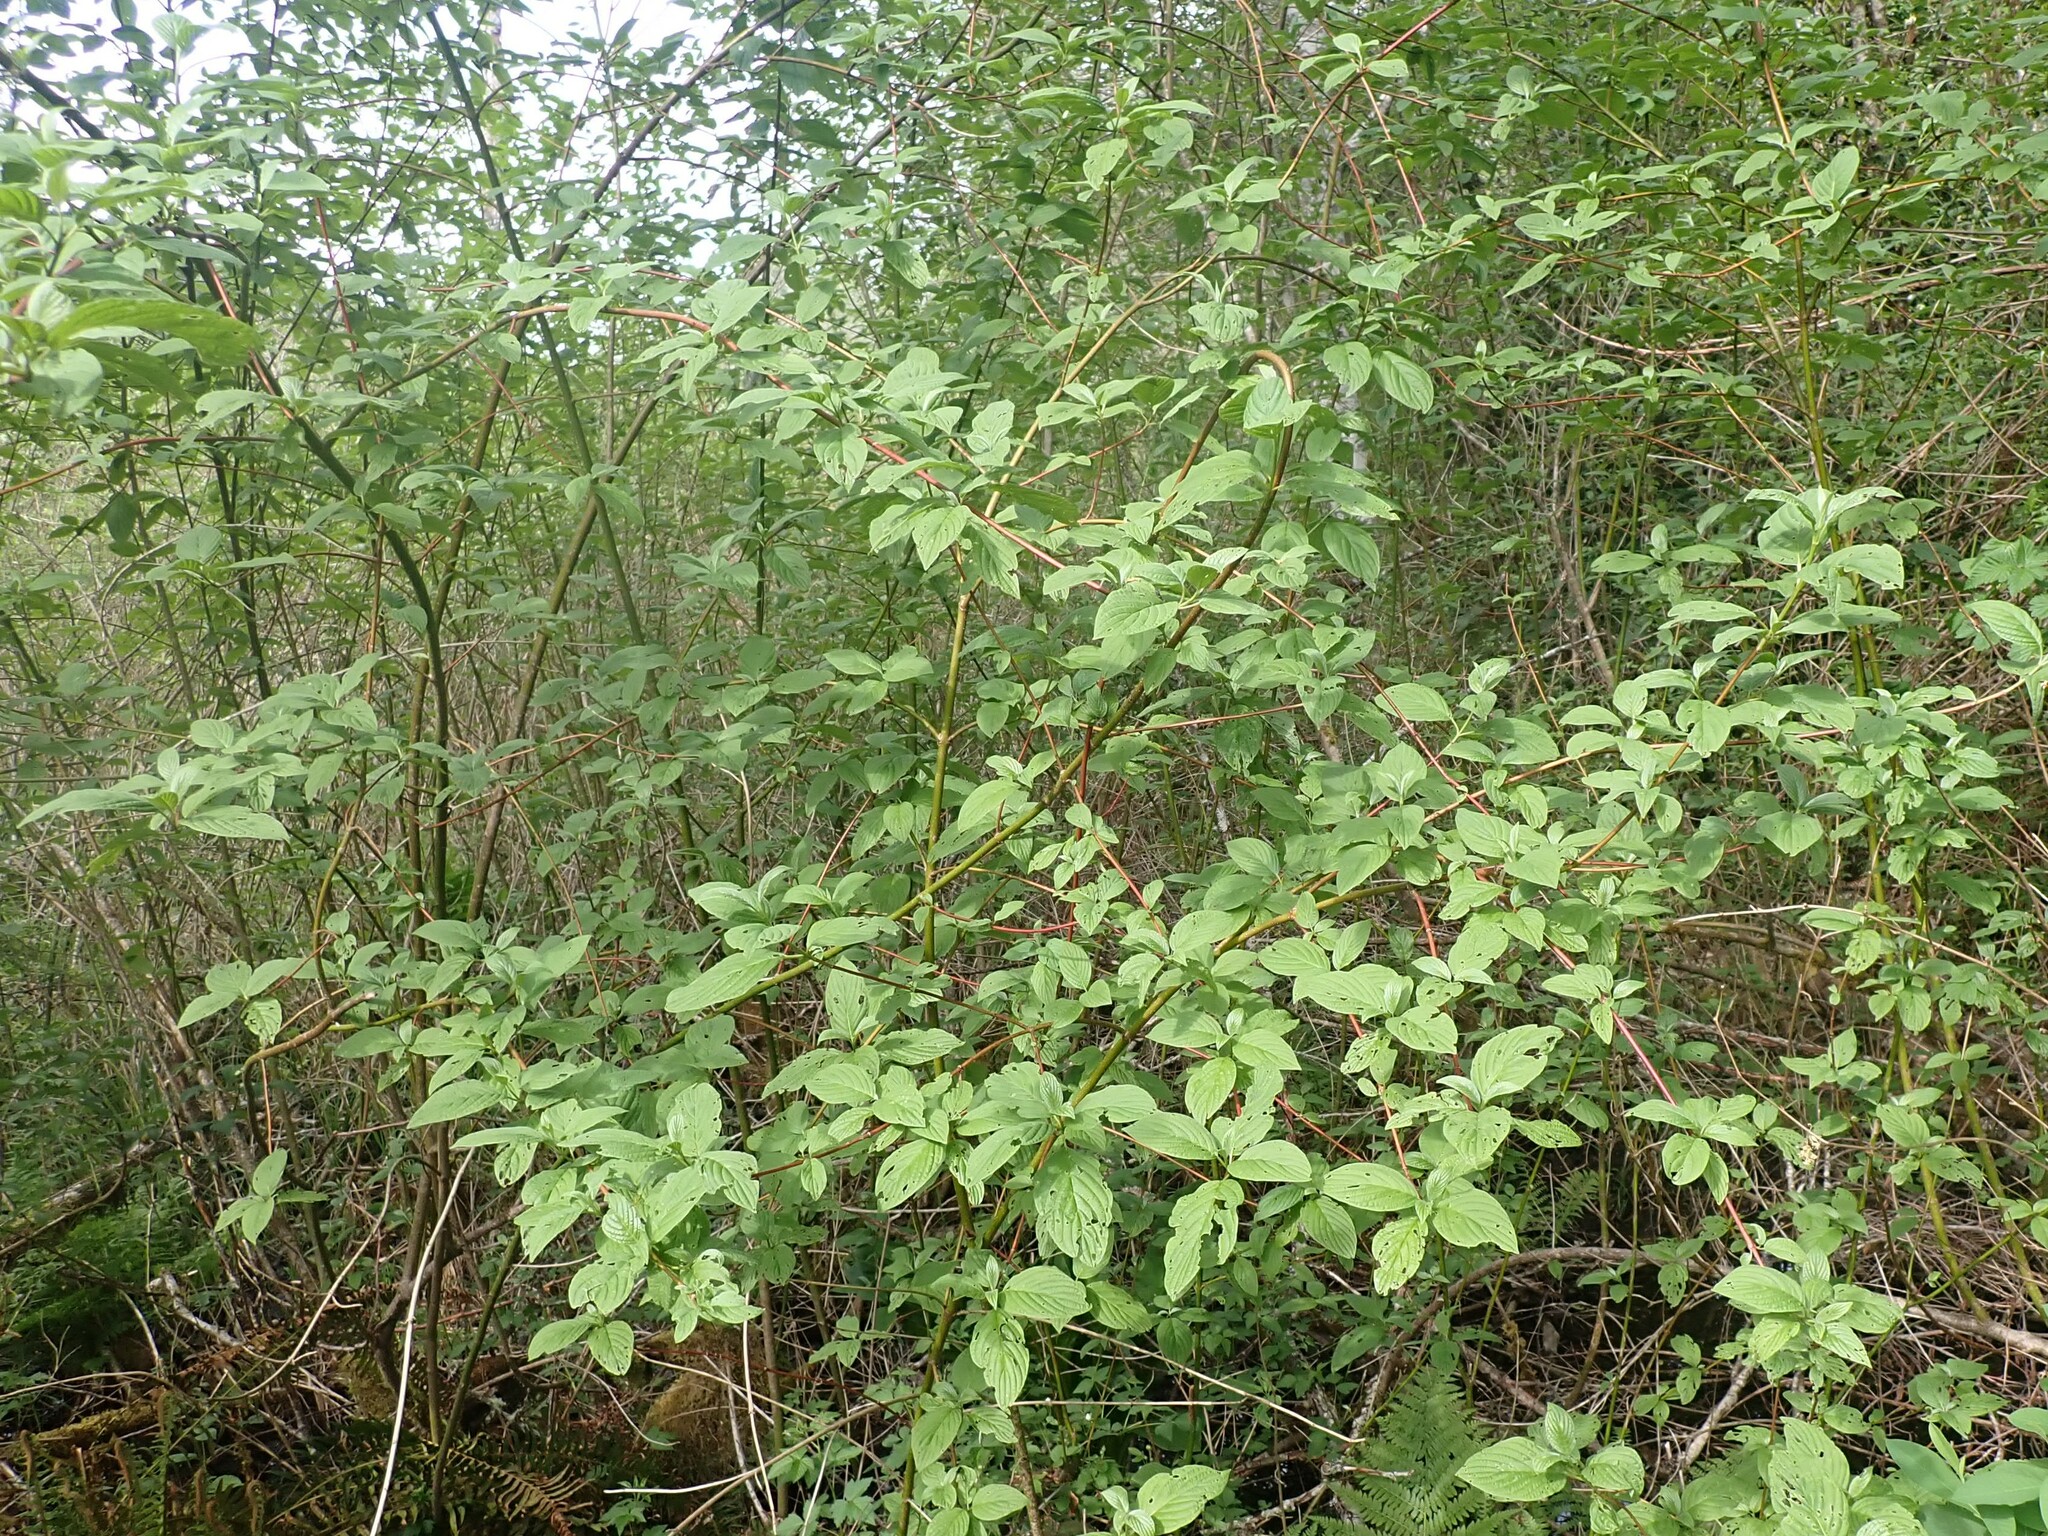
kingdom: Plantae
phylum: Tracheophyta
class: Magnoliopsida
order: Cornales
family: Cornaceae
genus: Cornus
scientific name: Cornus sericea
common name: Red-osier dogwood
